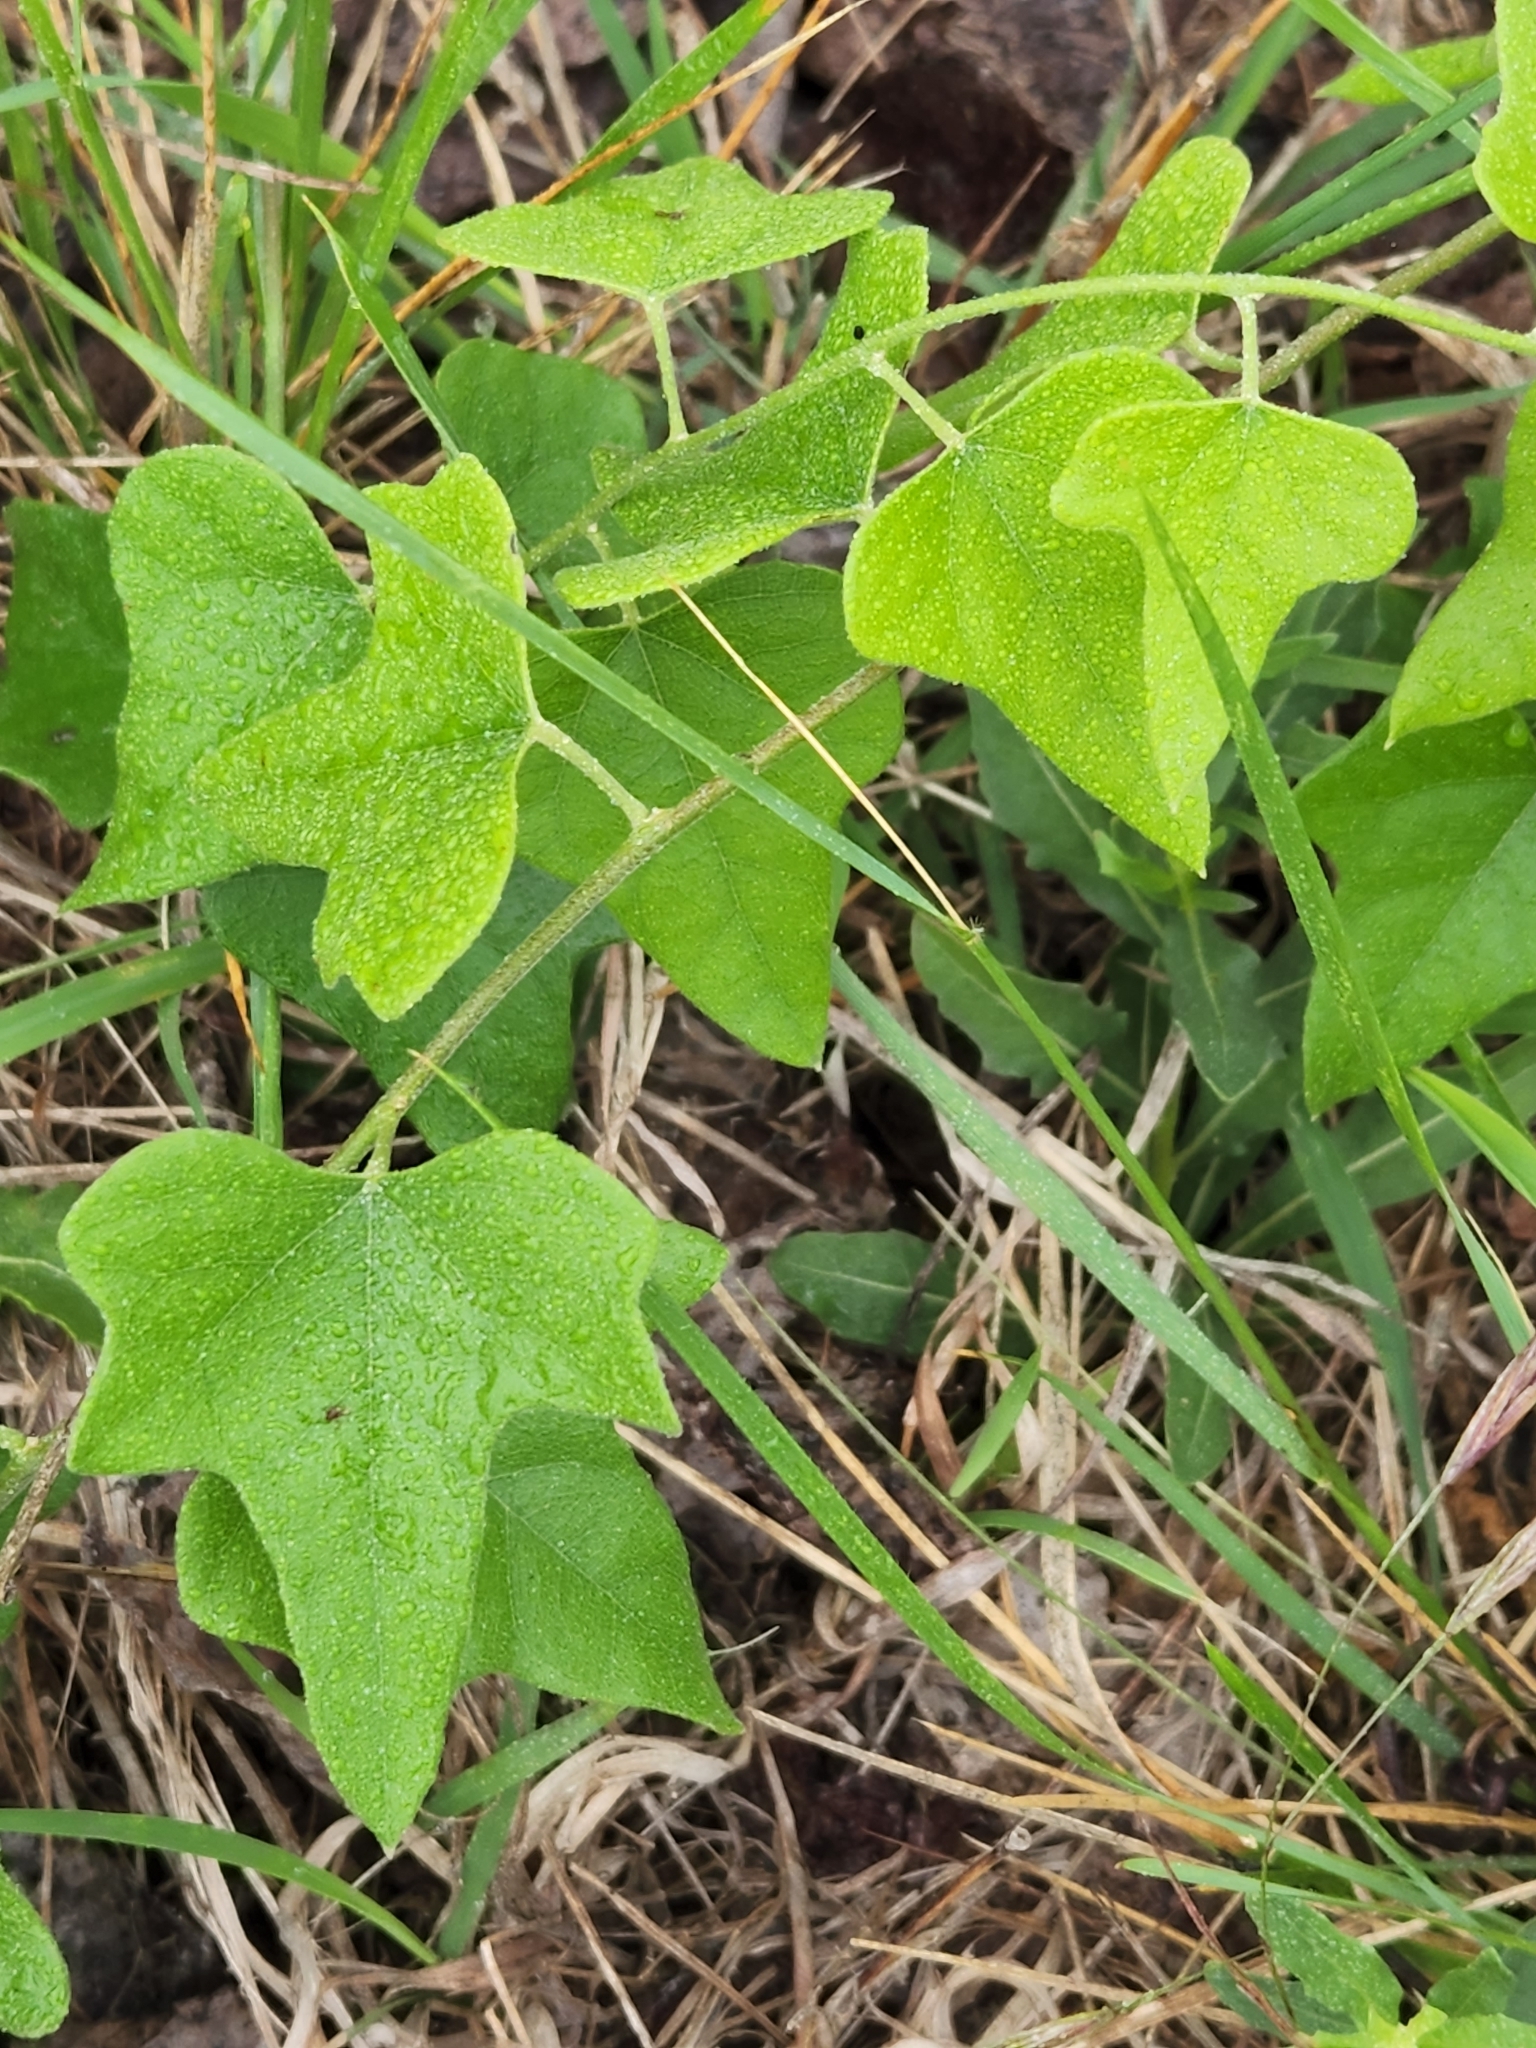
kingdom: Plantae
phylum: Tracheophyta
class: Magnoliopsida
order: Ranunculales
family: Menispermaceae
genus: Cocculus
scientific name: Cocculus carolinus
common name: Carolina moonseed
